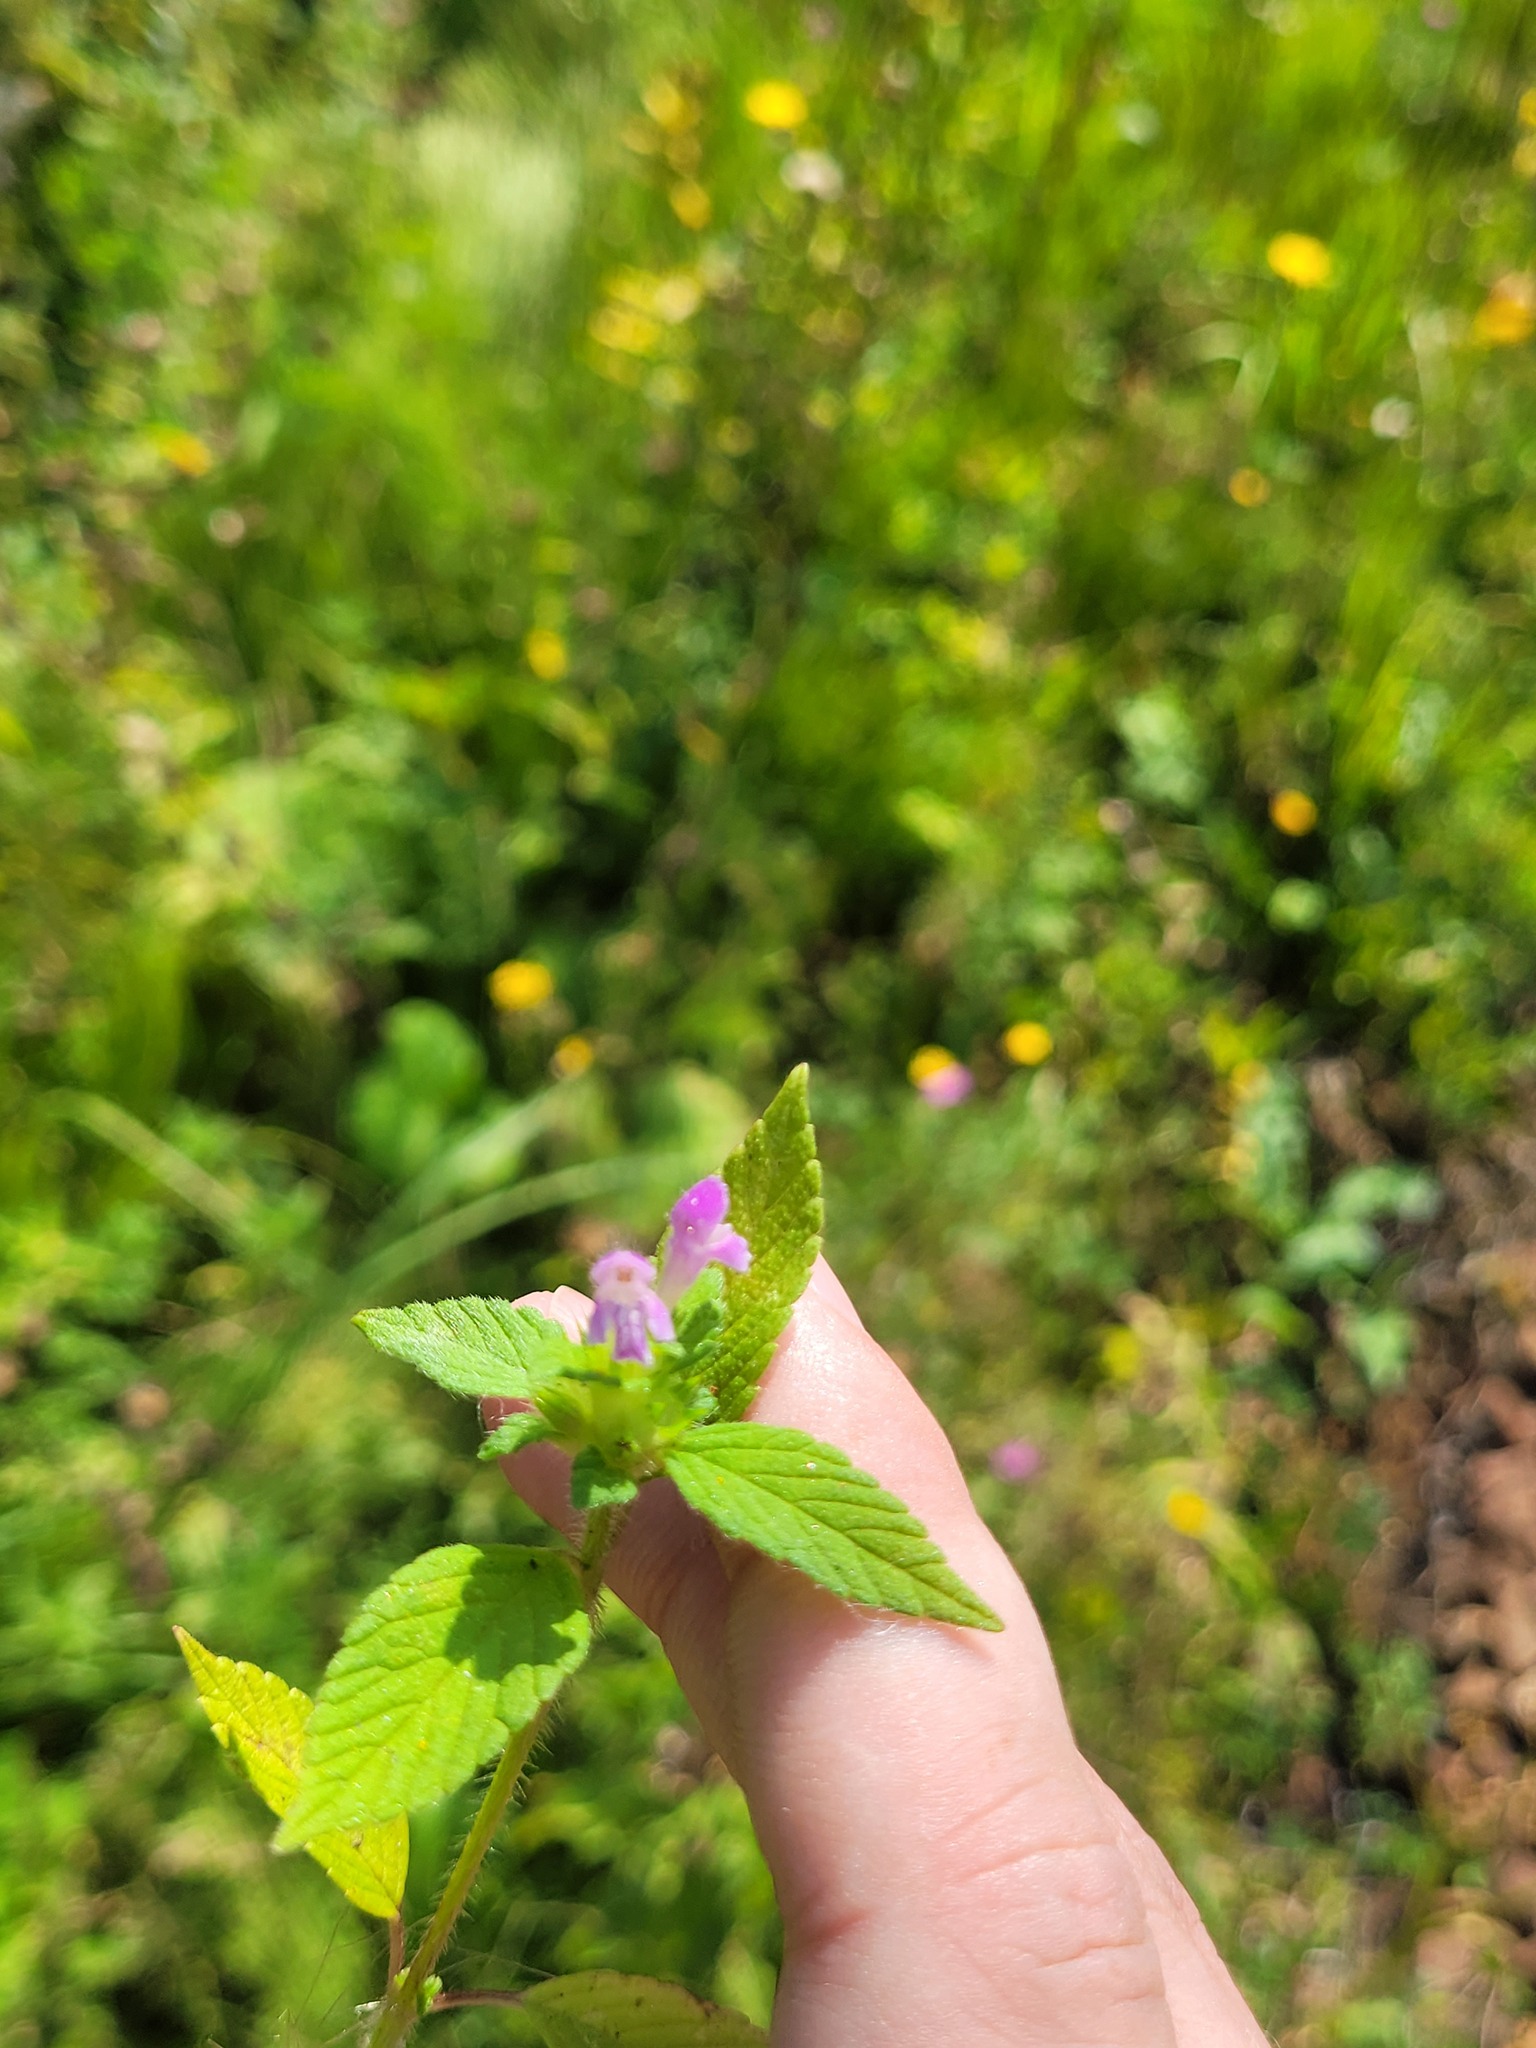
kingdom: Plantae
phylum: Tracheophyta
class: Magnoliopsida
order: Lamiales
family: Lamiaceae
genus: Galeopsis
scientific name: Galeopsis bifida
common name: Bifid hemp-nettle
